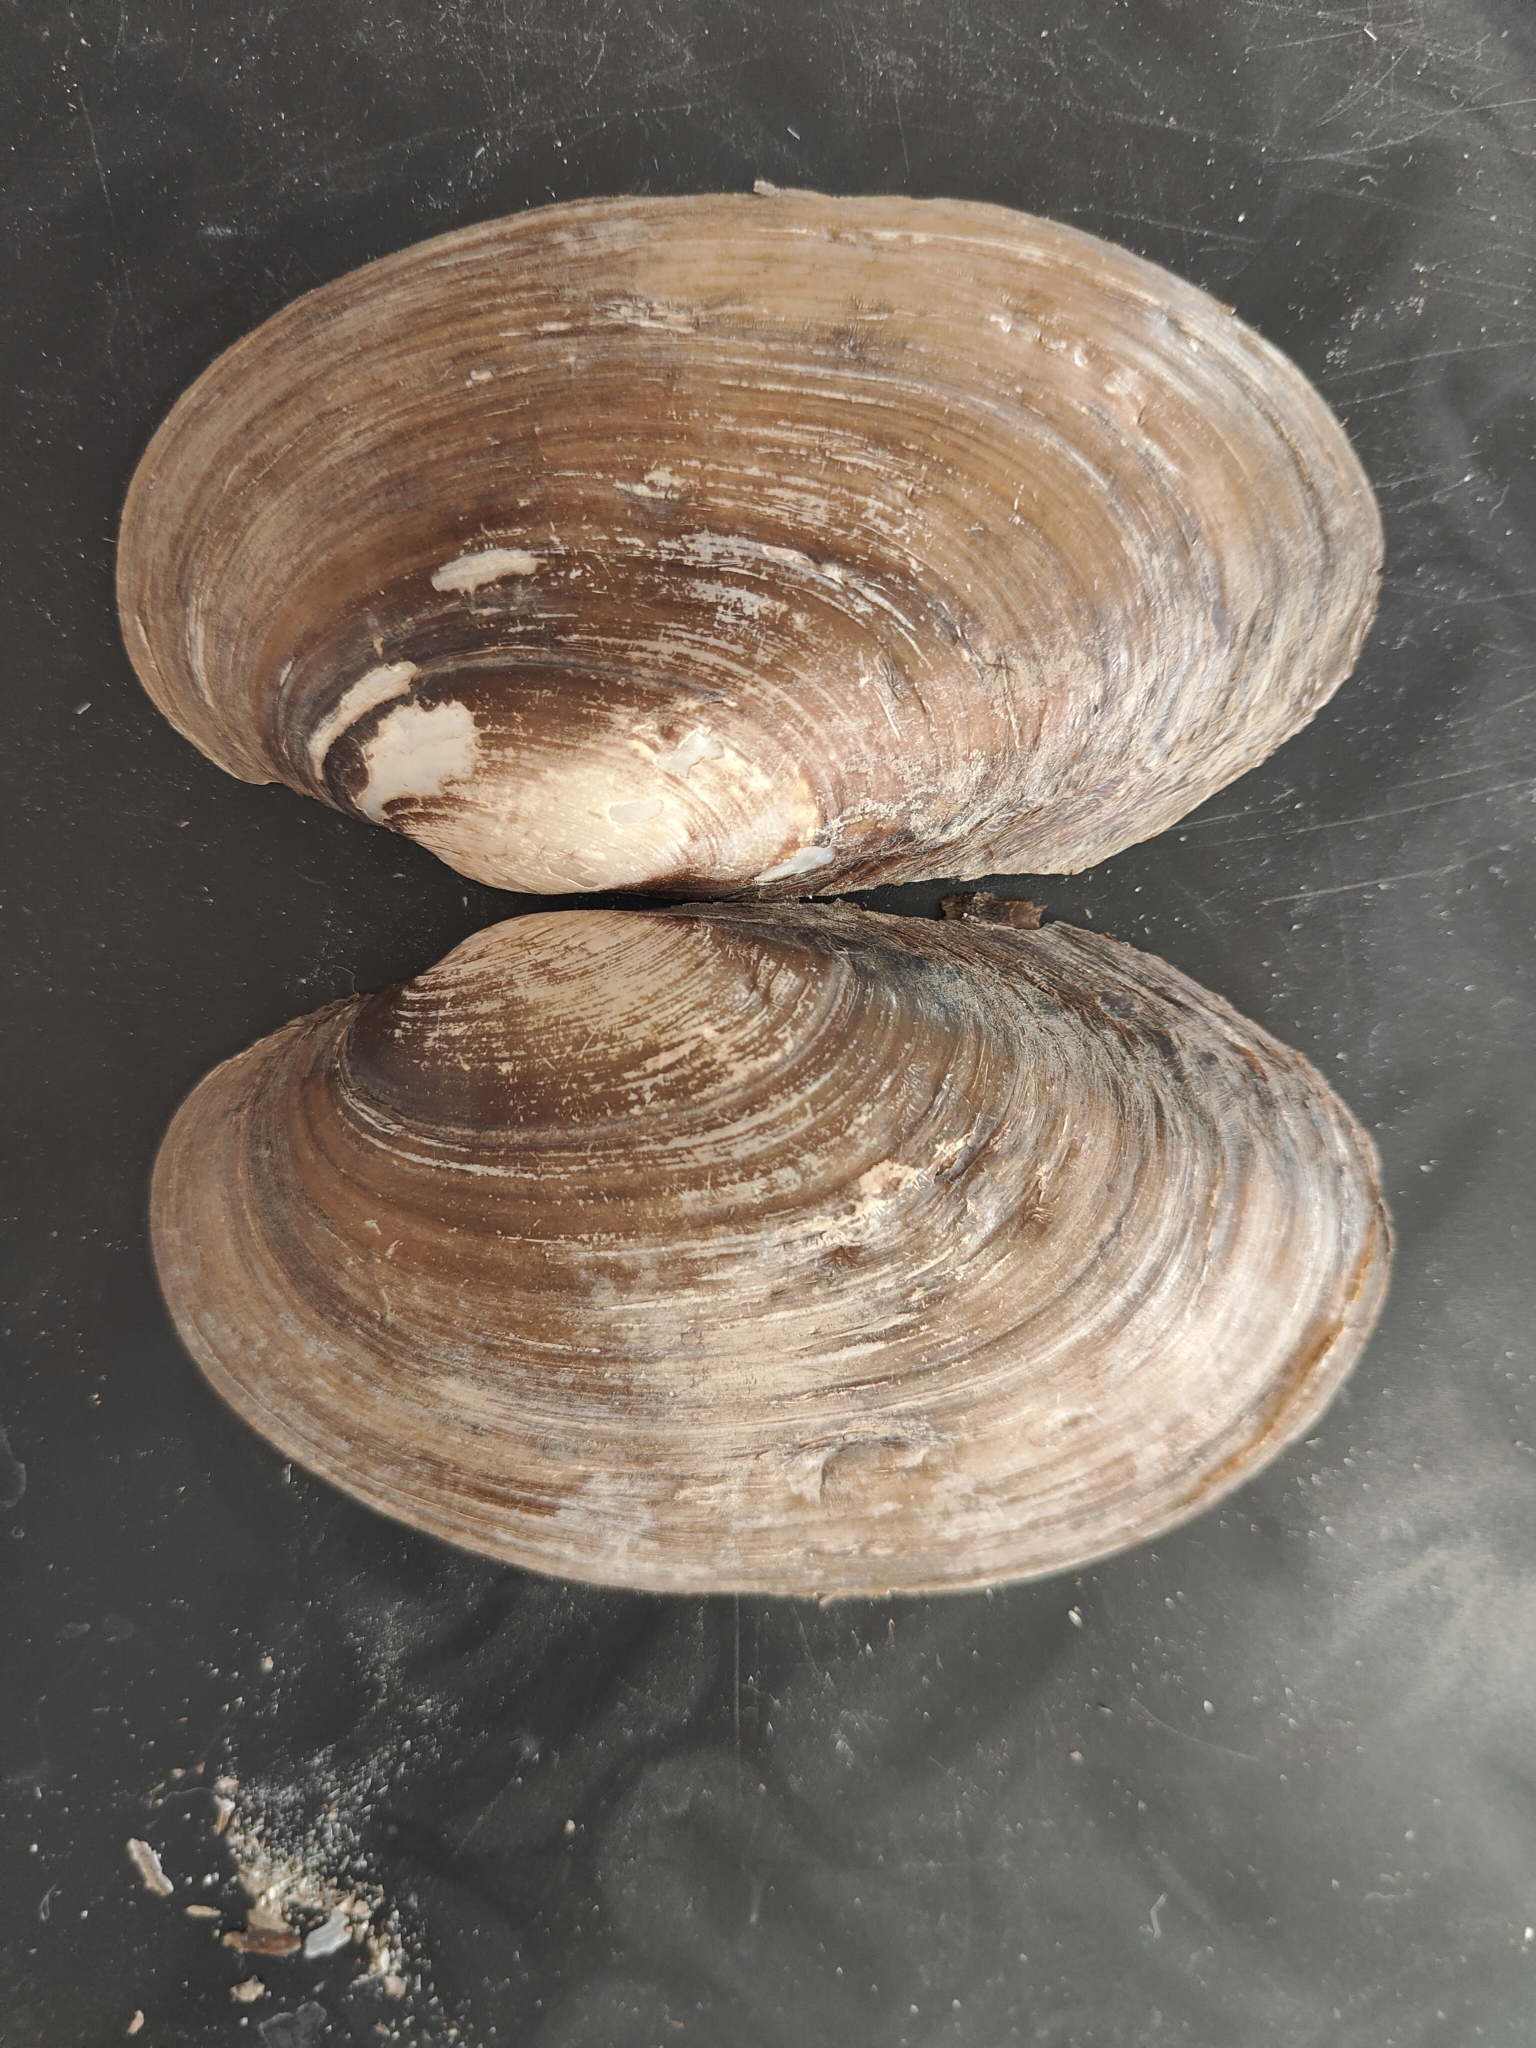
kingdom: Animalia
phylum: Mollusca
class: Bivalvia
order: Unionida
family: Unionidae
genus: Potamilus
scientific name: Potamilus fragilis
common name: Fragile papershell
